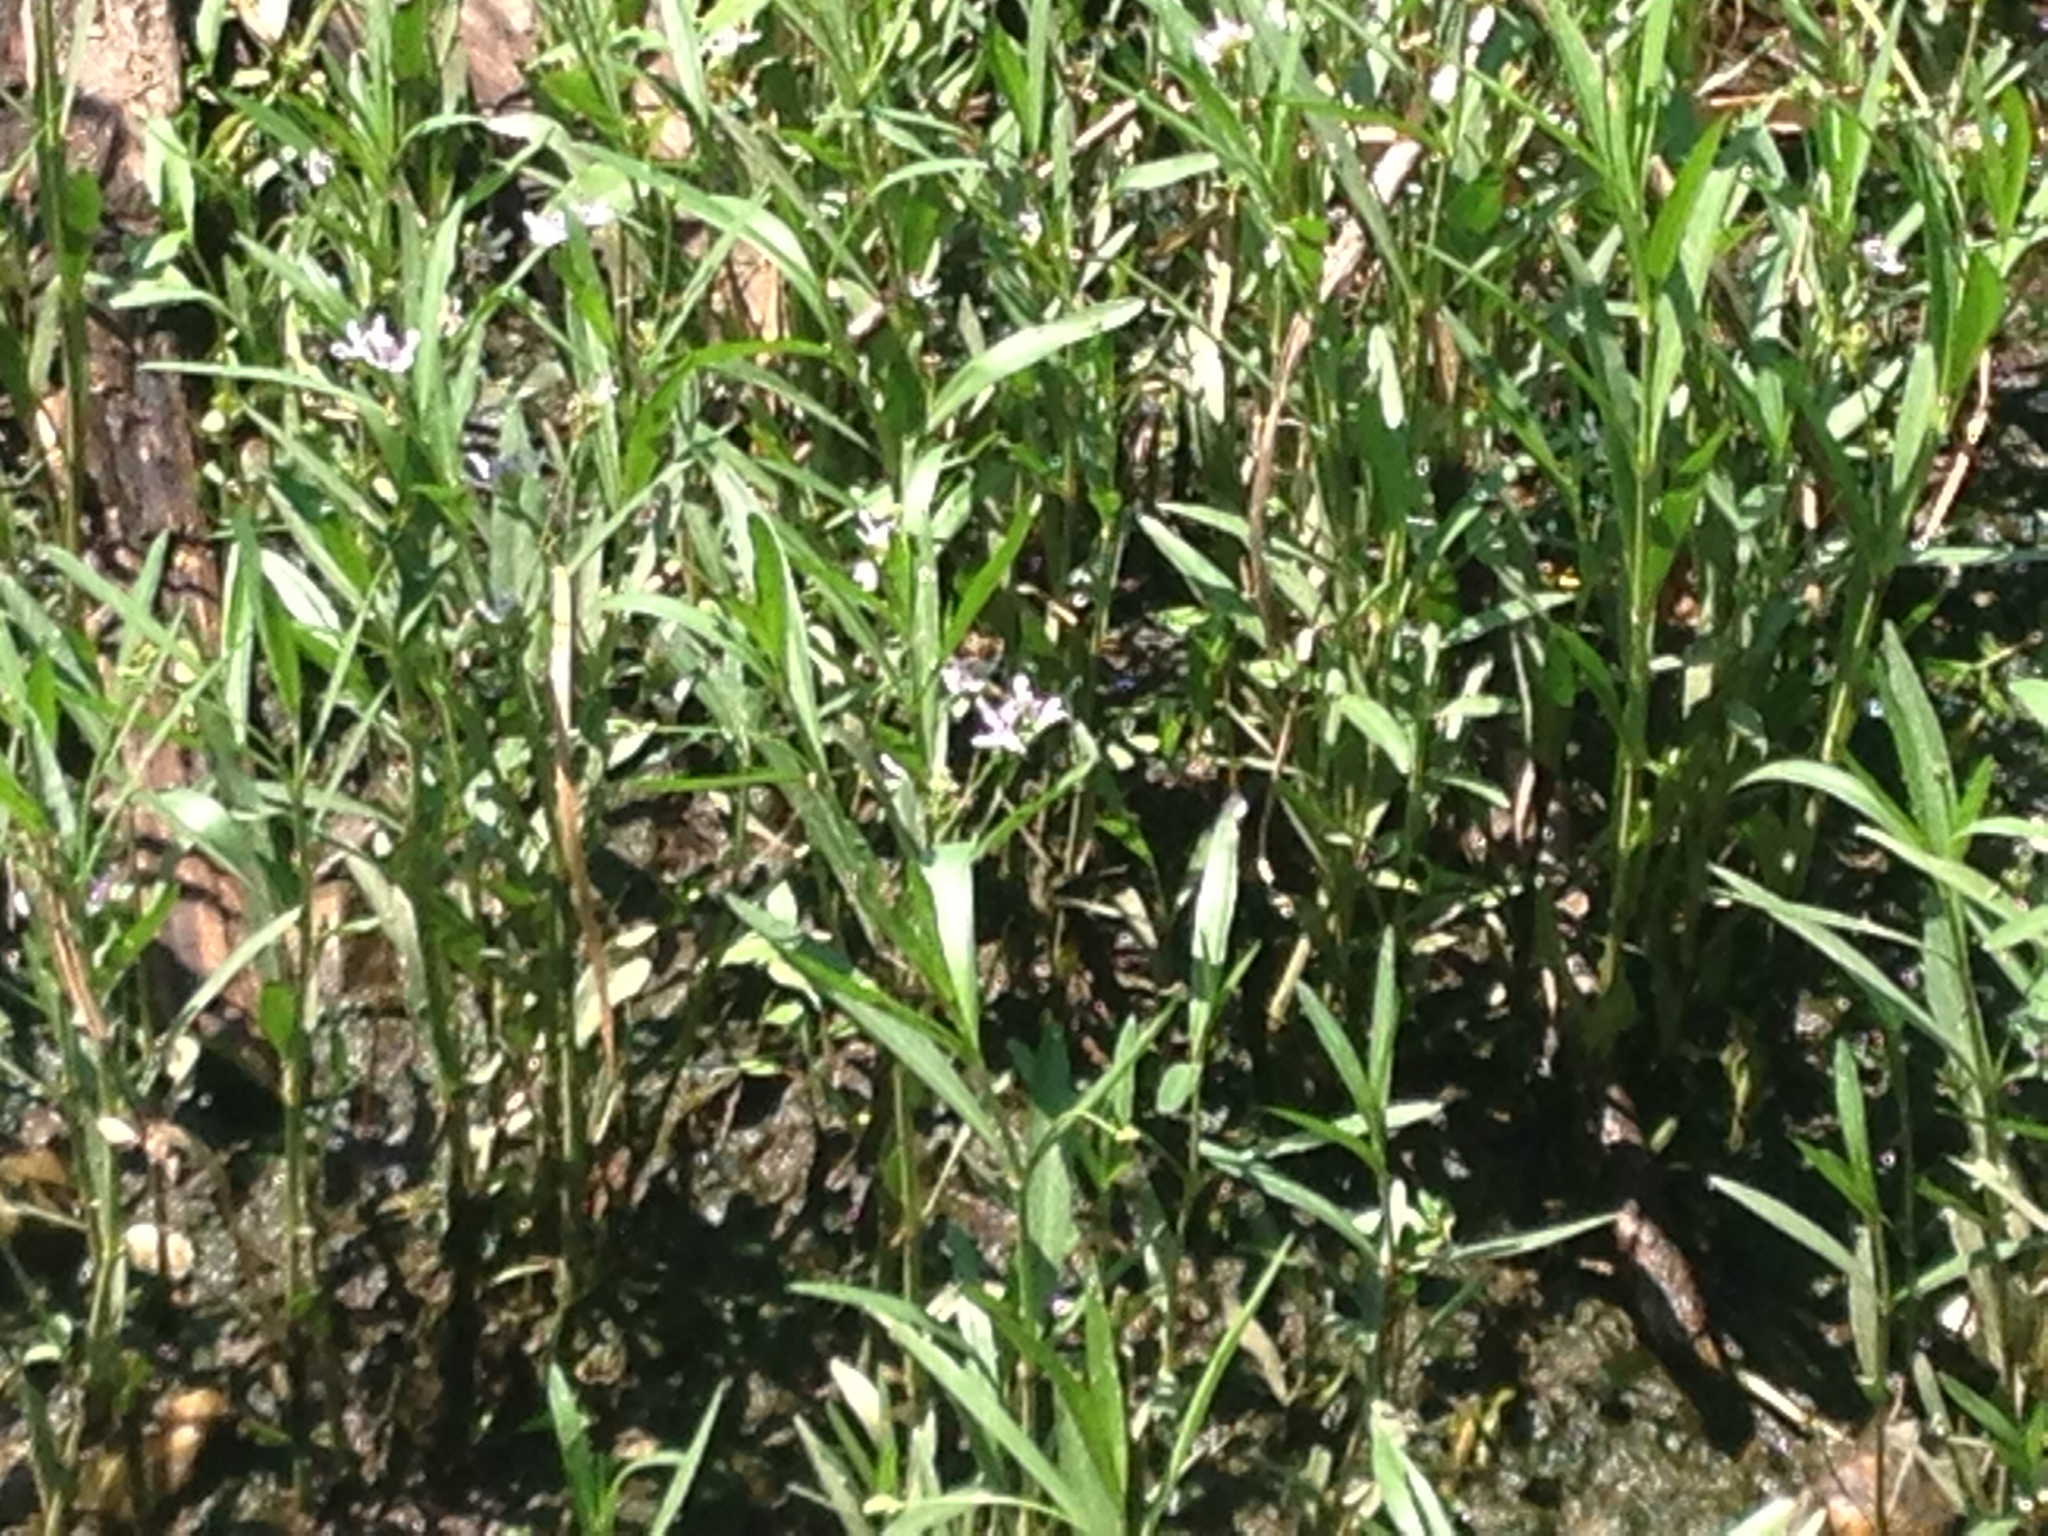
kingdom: Plantae
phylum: Tracheophyta
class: Magnoliopsida
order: Lamiales
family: Acanthaceae
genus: Dianthera
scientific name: Dianthera americana
